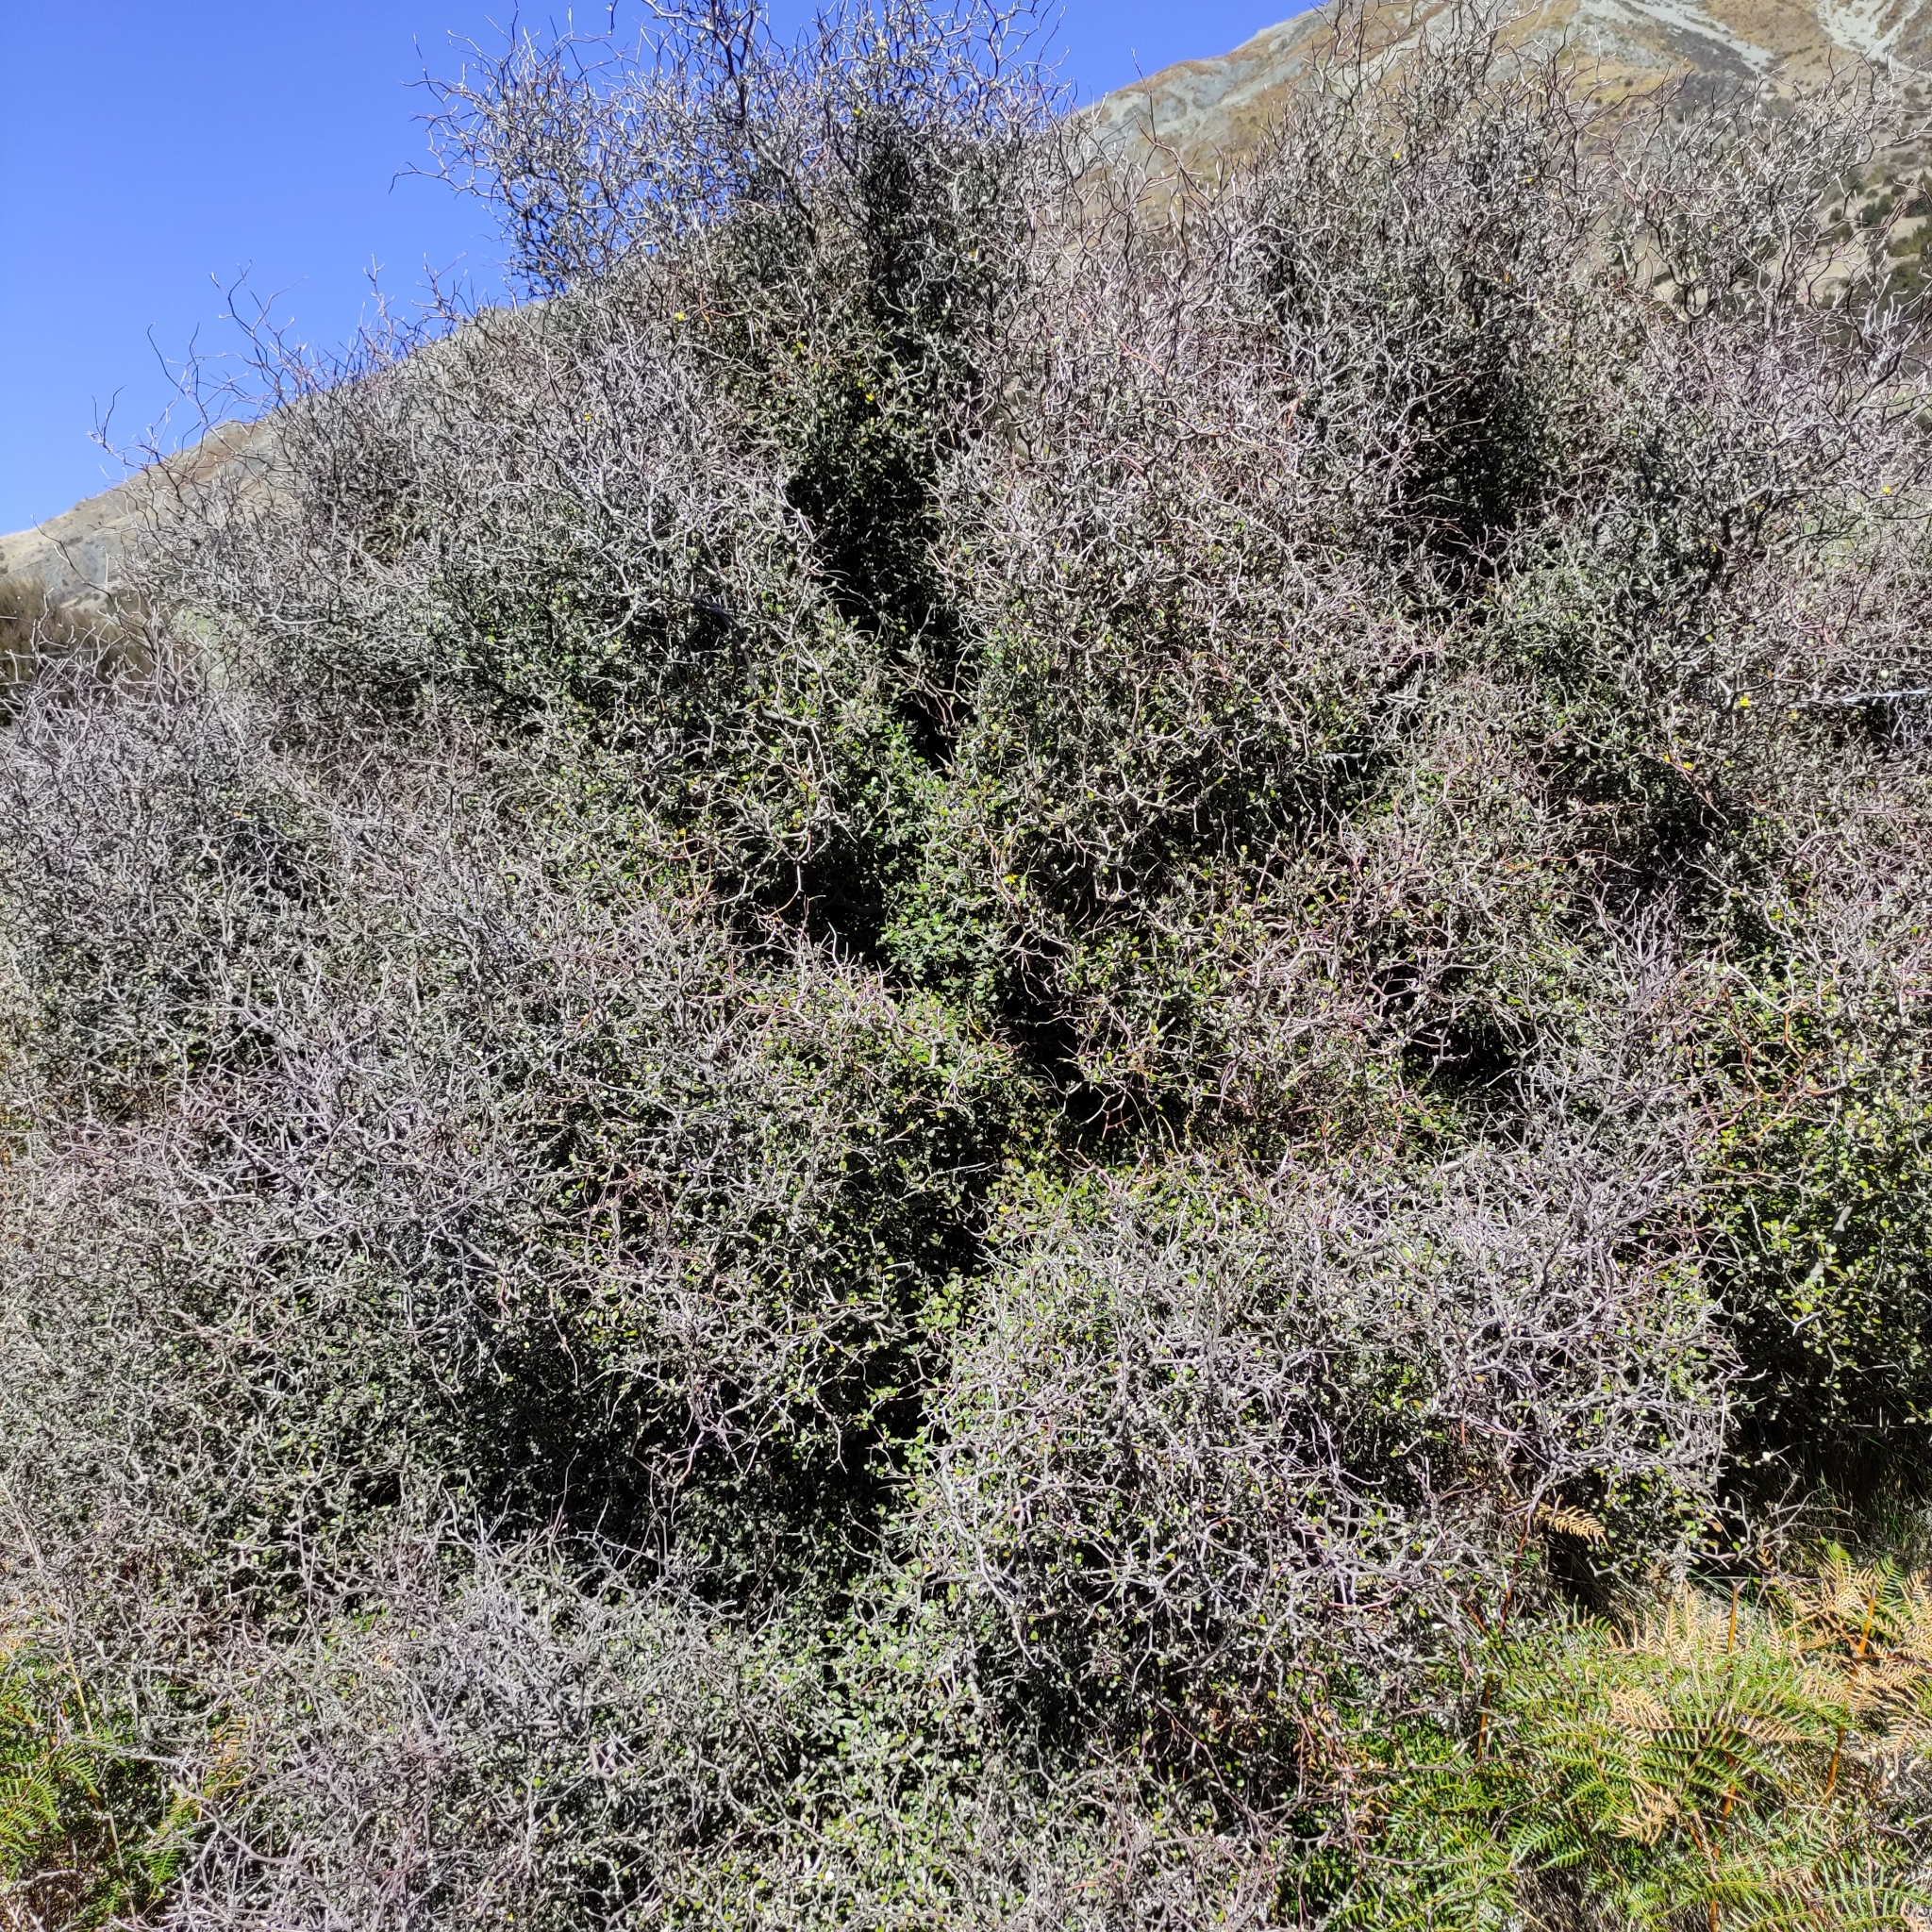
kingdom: Plantae
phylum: Tracheophyta
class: Magnoliopsida
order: Asterales
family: Argophyllaceae
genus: Corokia
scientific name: Corokia cotoneaster
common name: Wire nettingbush
